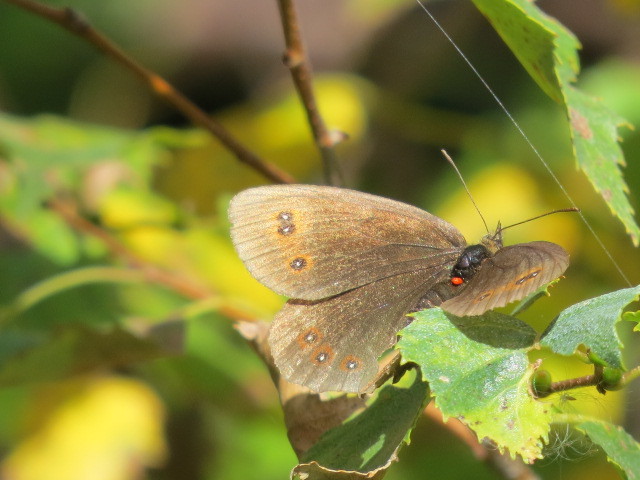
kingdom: Animalia
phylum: Arthropoda
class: Insecta
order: Lepidoptera
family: Nymphalidae
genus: Erebia
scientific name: Erebia aethiops
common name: Scotch argus
